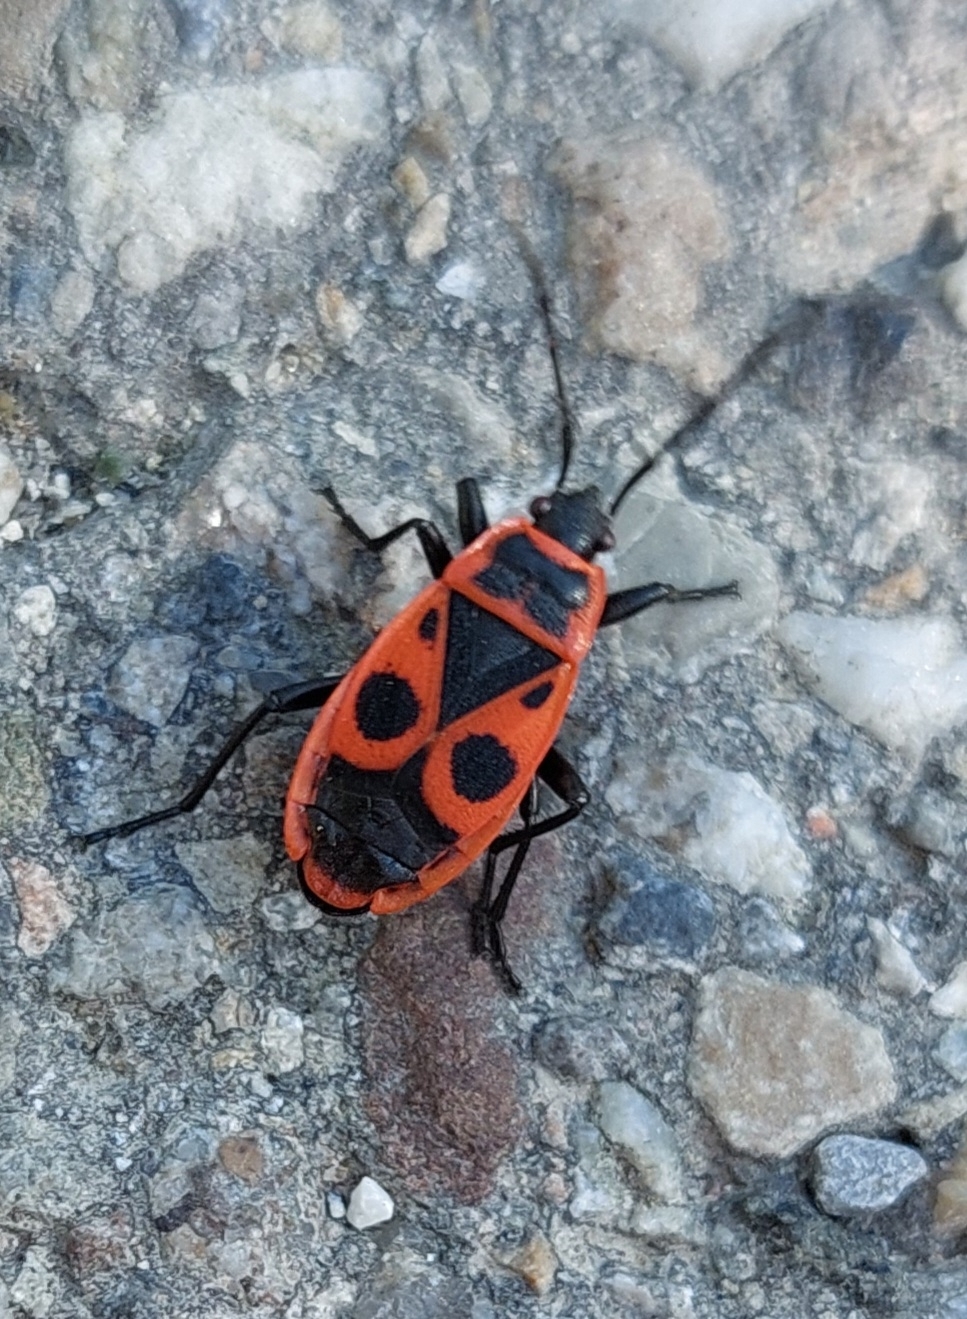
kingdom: Animalia
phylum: Arthropoda
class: Insecta
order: Hemiptera
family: Pyrrhocoridae
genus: Pyrrhocoris
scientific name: Pyrrhocoris apterus
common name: Firebug
